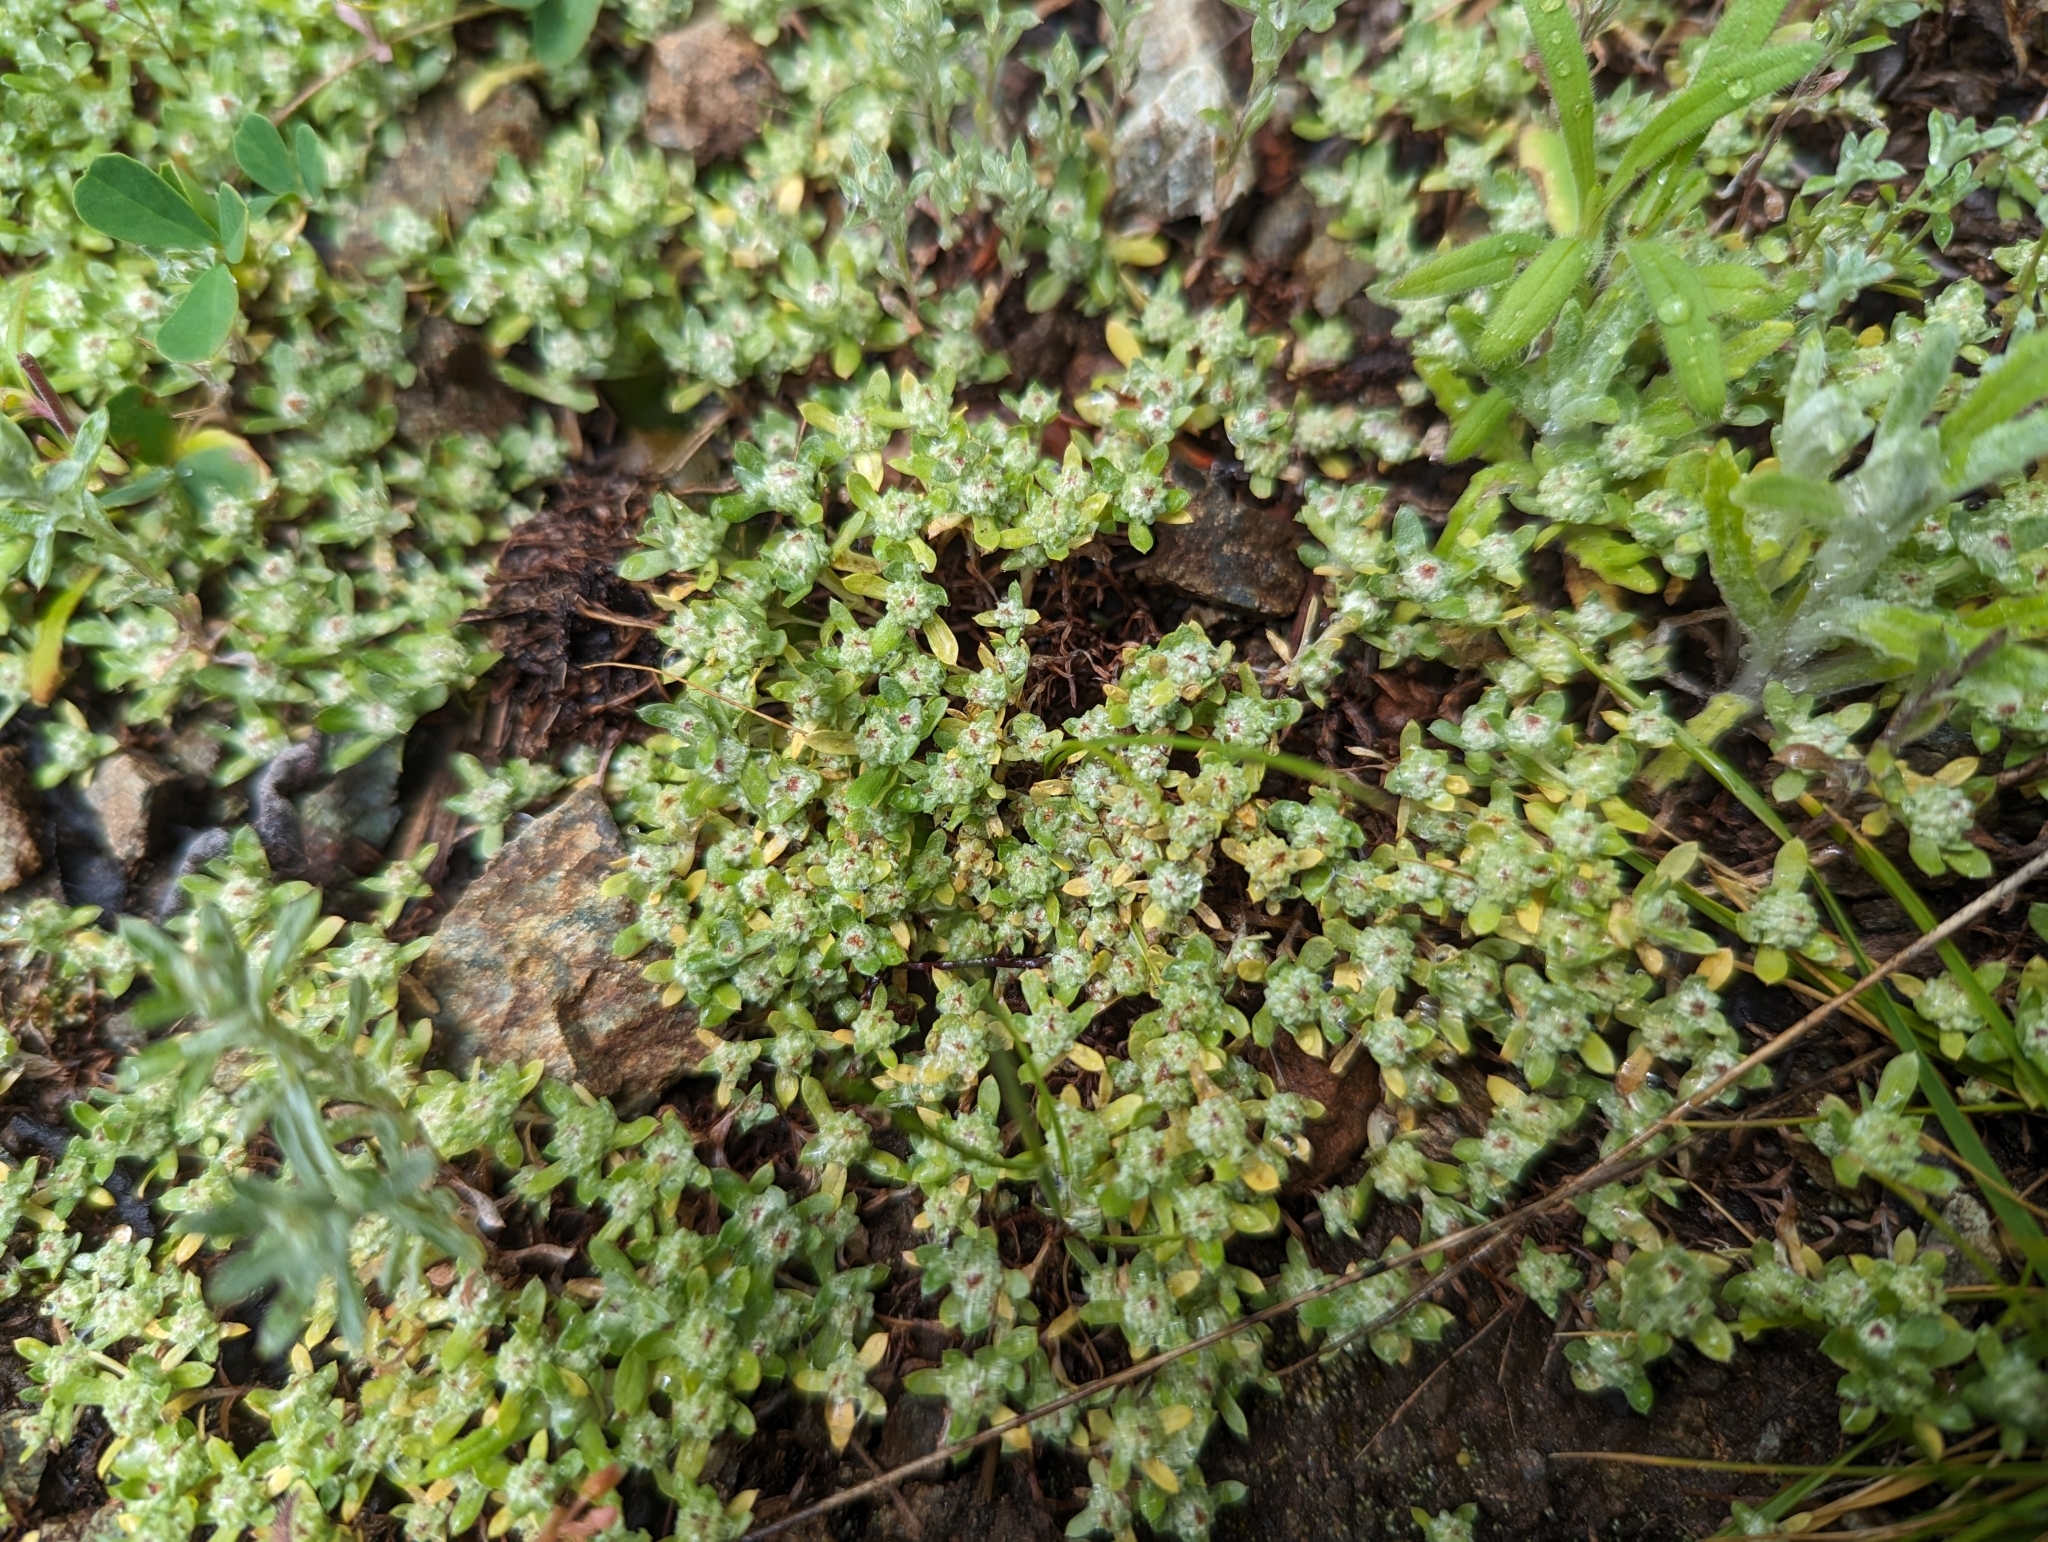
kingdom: Plantae
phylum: Tracheophyta
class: Magnoliopsida
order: Asterales
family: Asteraceae
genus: Psilocarphus
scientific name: Psilocarphus tenellus
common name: Slender woolly-marbles
